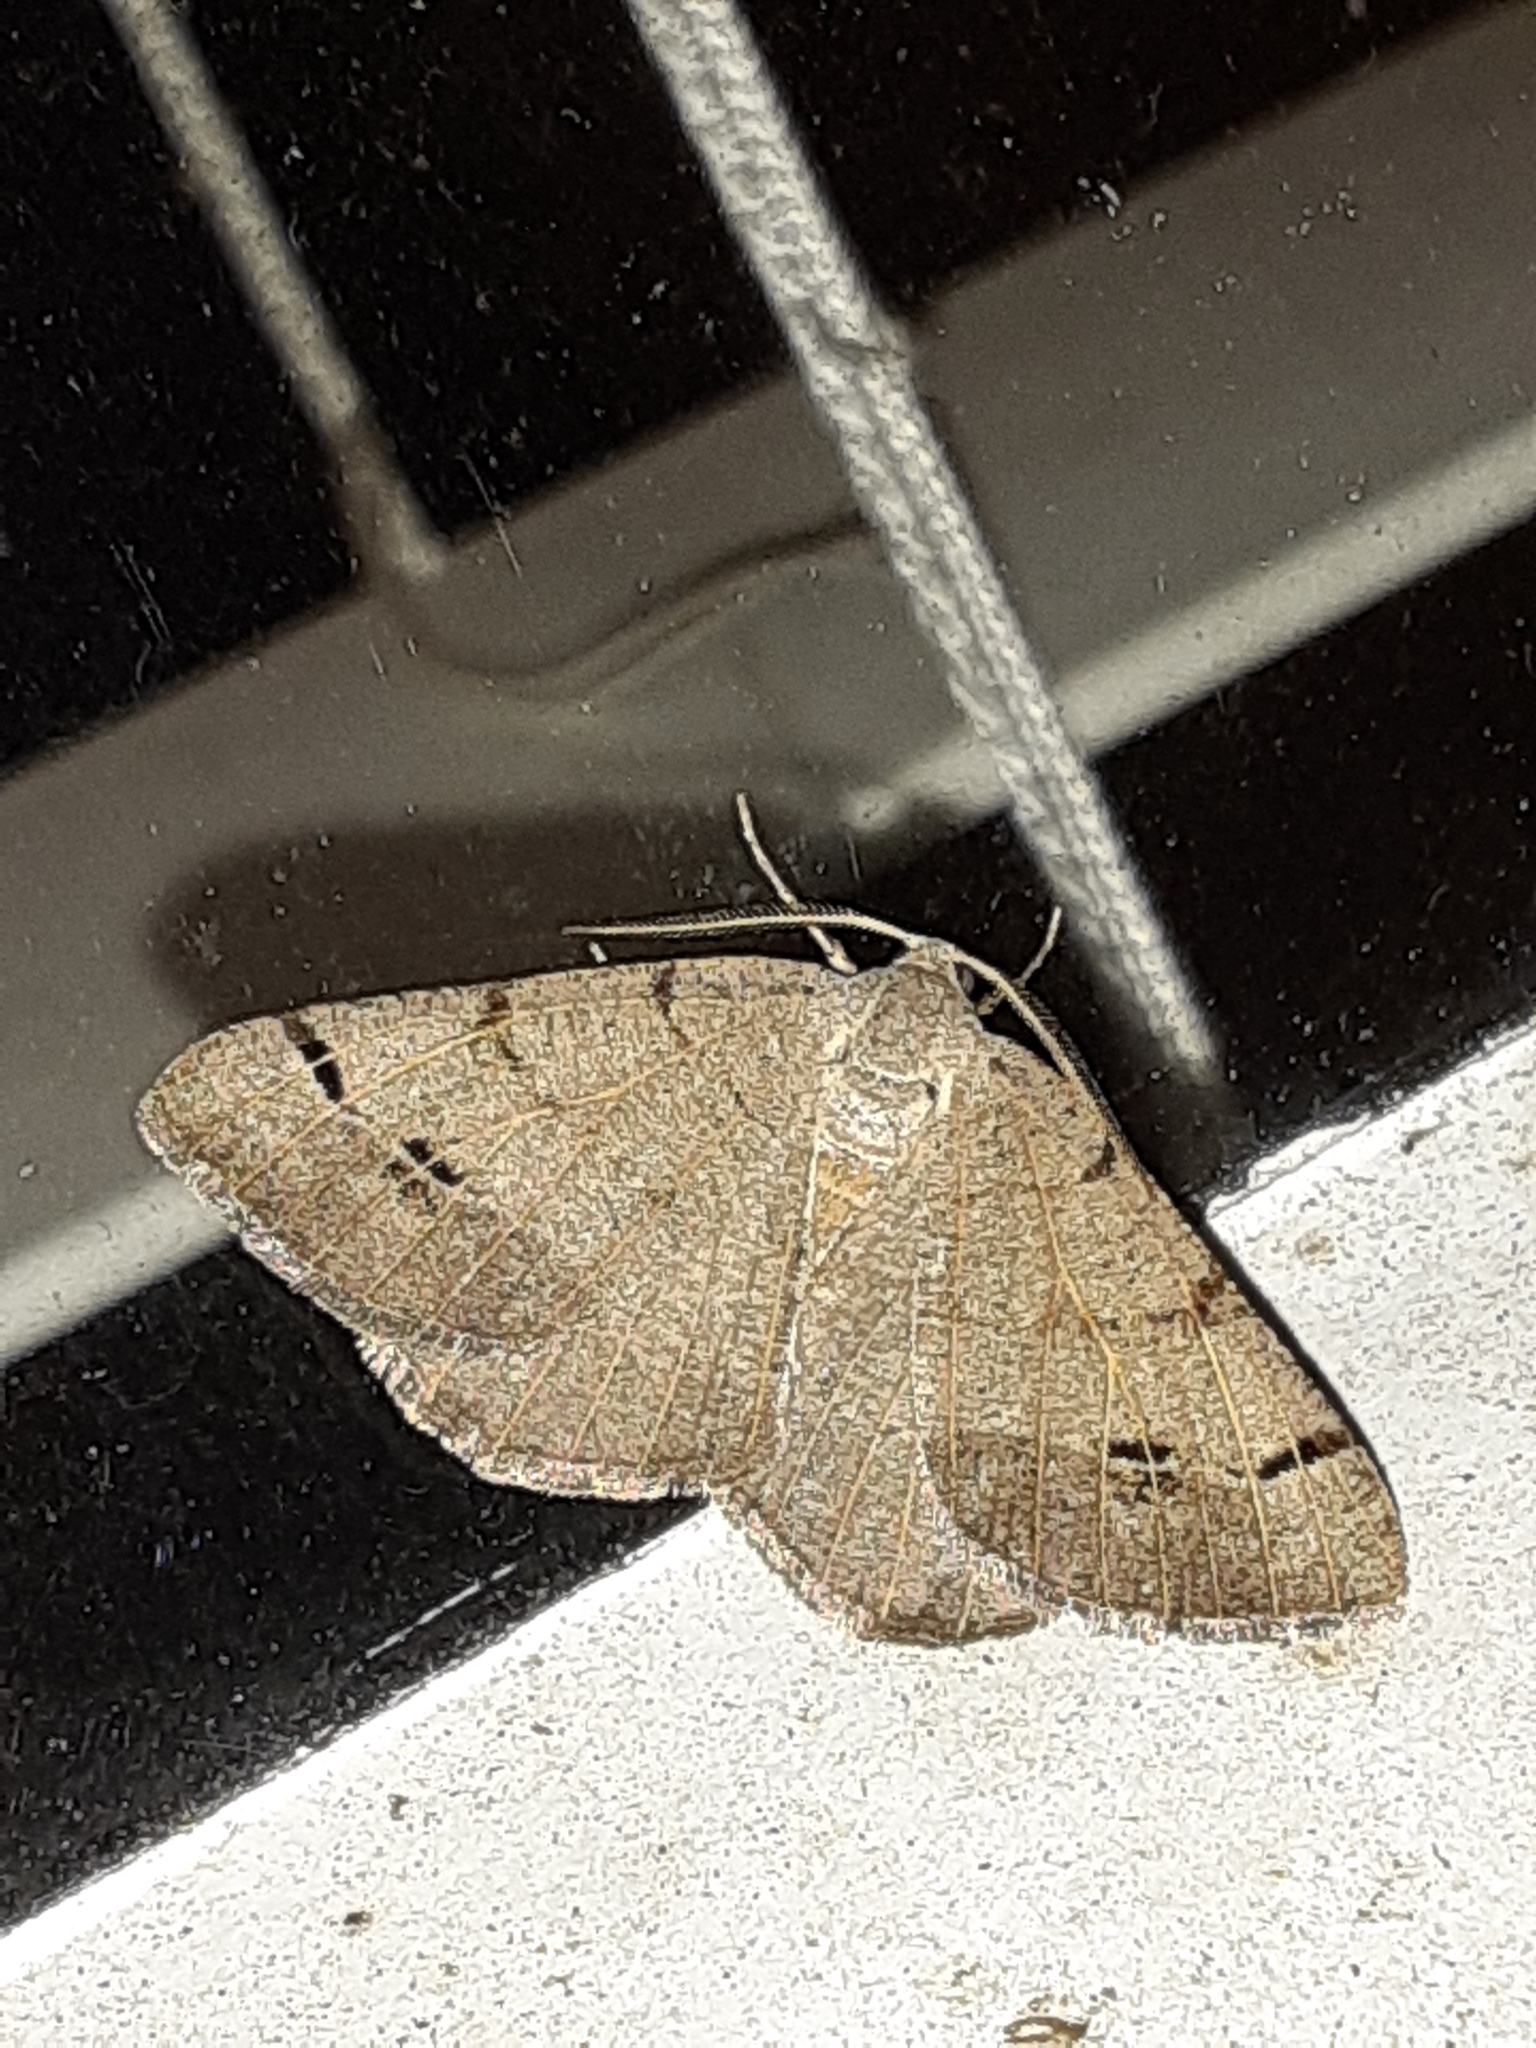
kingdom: Animalia
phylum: Arthropoda
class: Insecta
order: Lepidoptera
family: Geometridae
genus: Isturgia
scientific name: Isturgia dislocaria
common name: Pale-viened enconista
